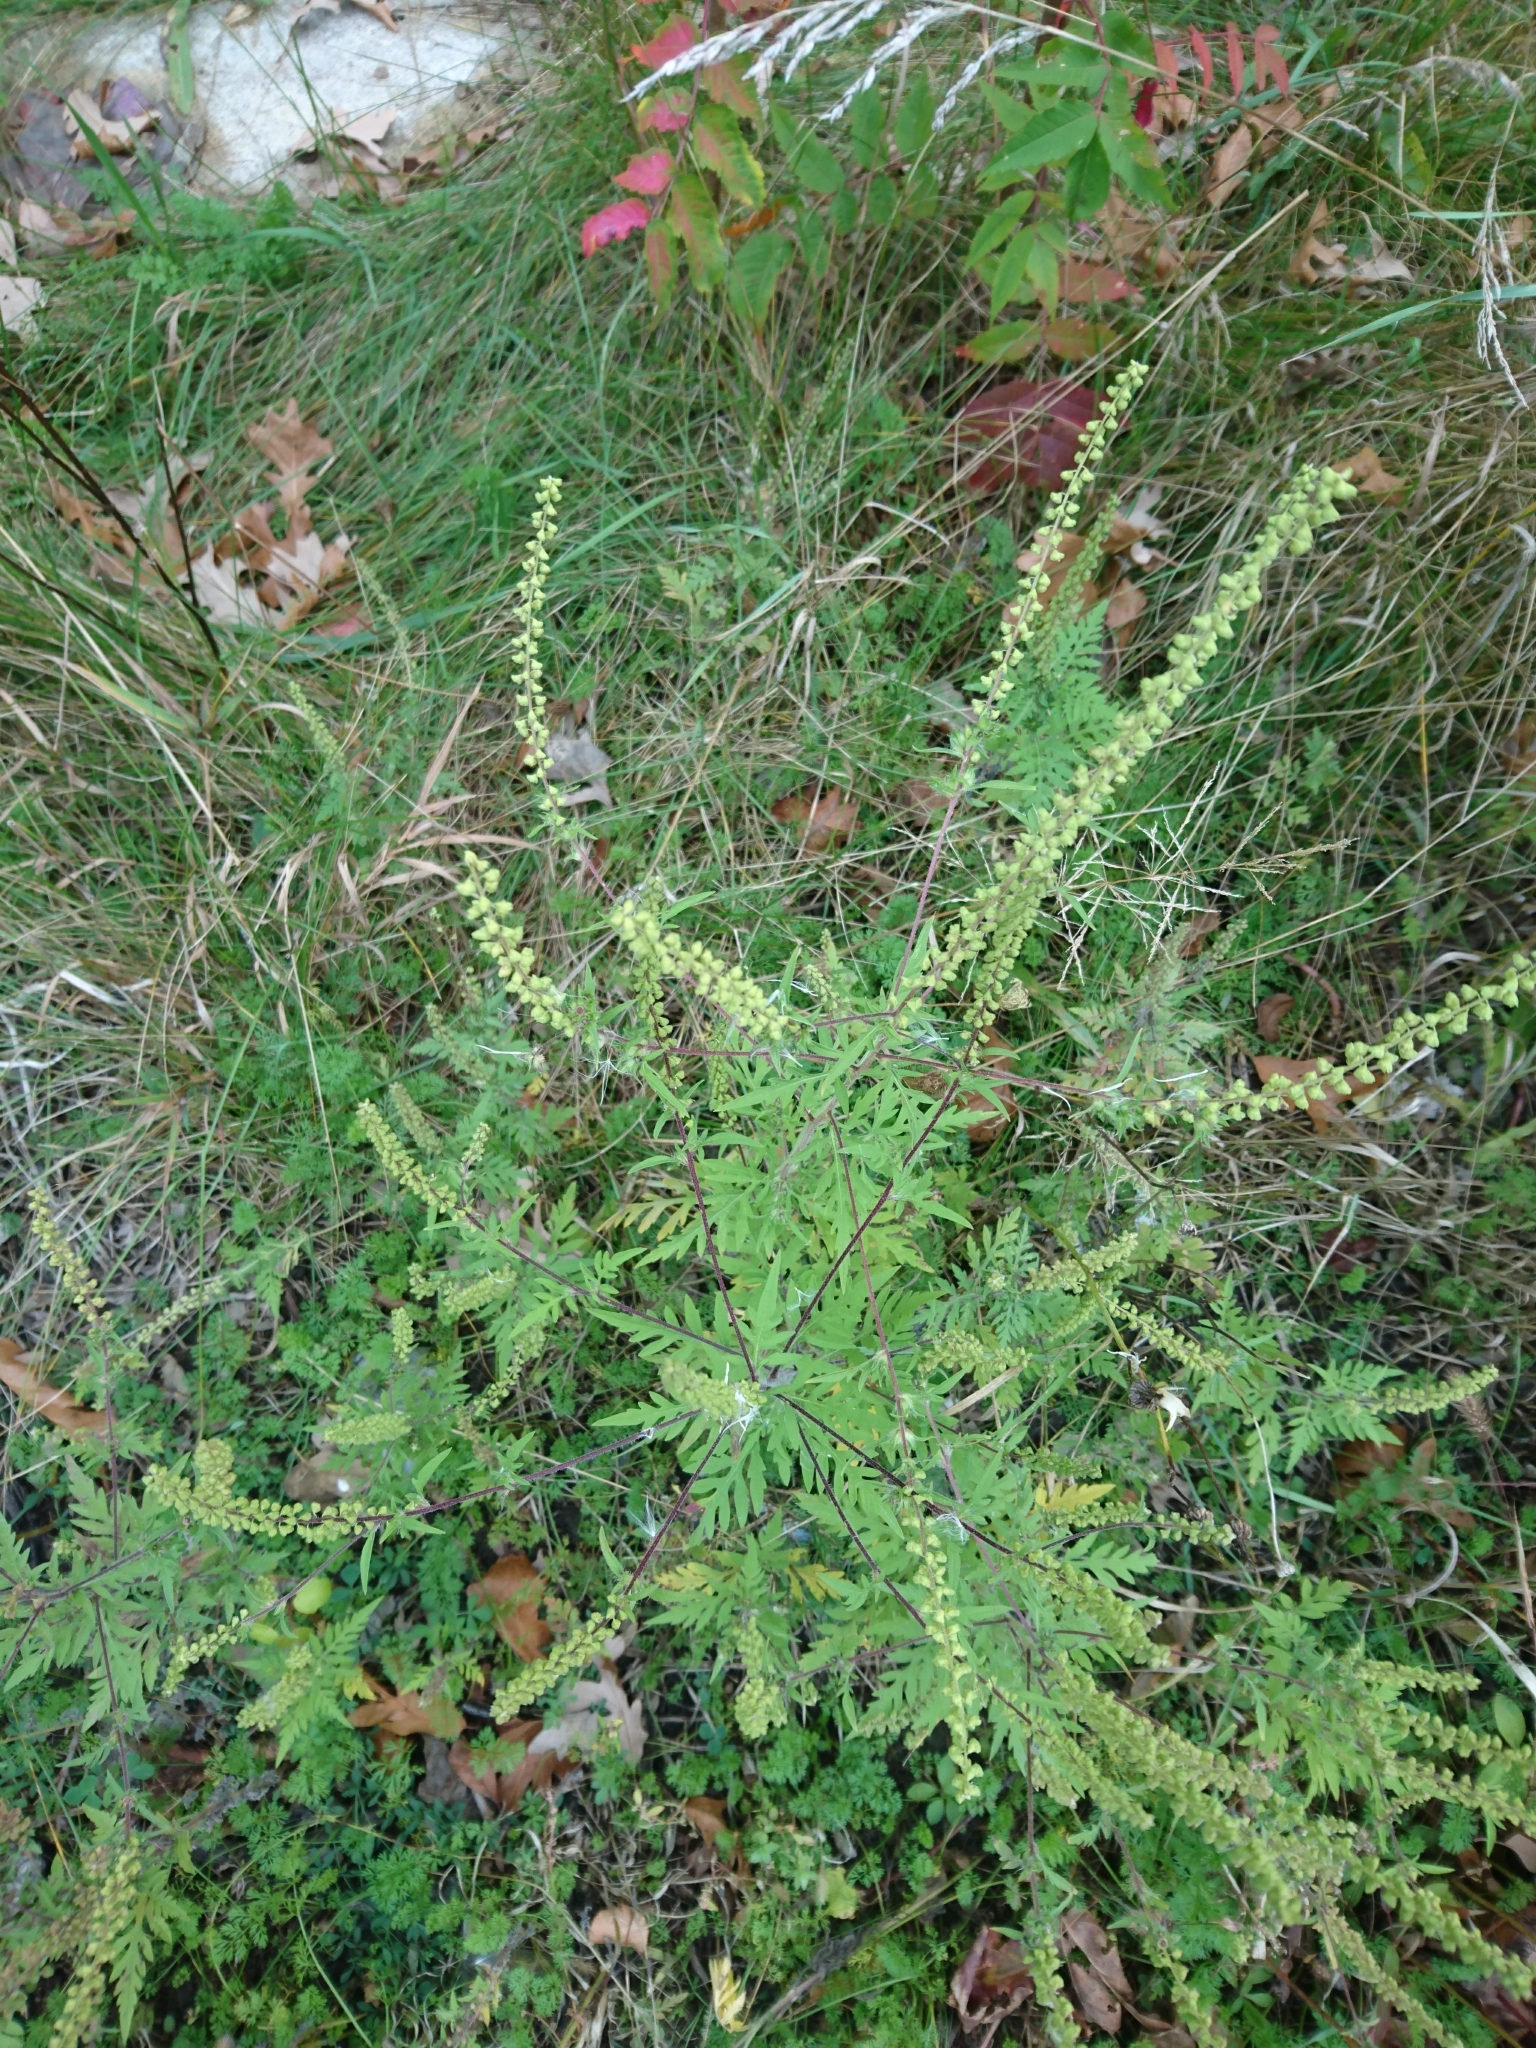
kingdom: Plantae
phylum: Tracheophyta
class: Magnoliopsida
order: Asterales
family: Asteraceae
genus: Ambrosia
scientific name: Ambrosia artemisiifolia
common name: Annual ragweed
